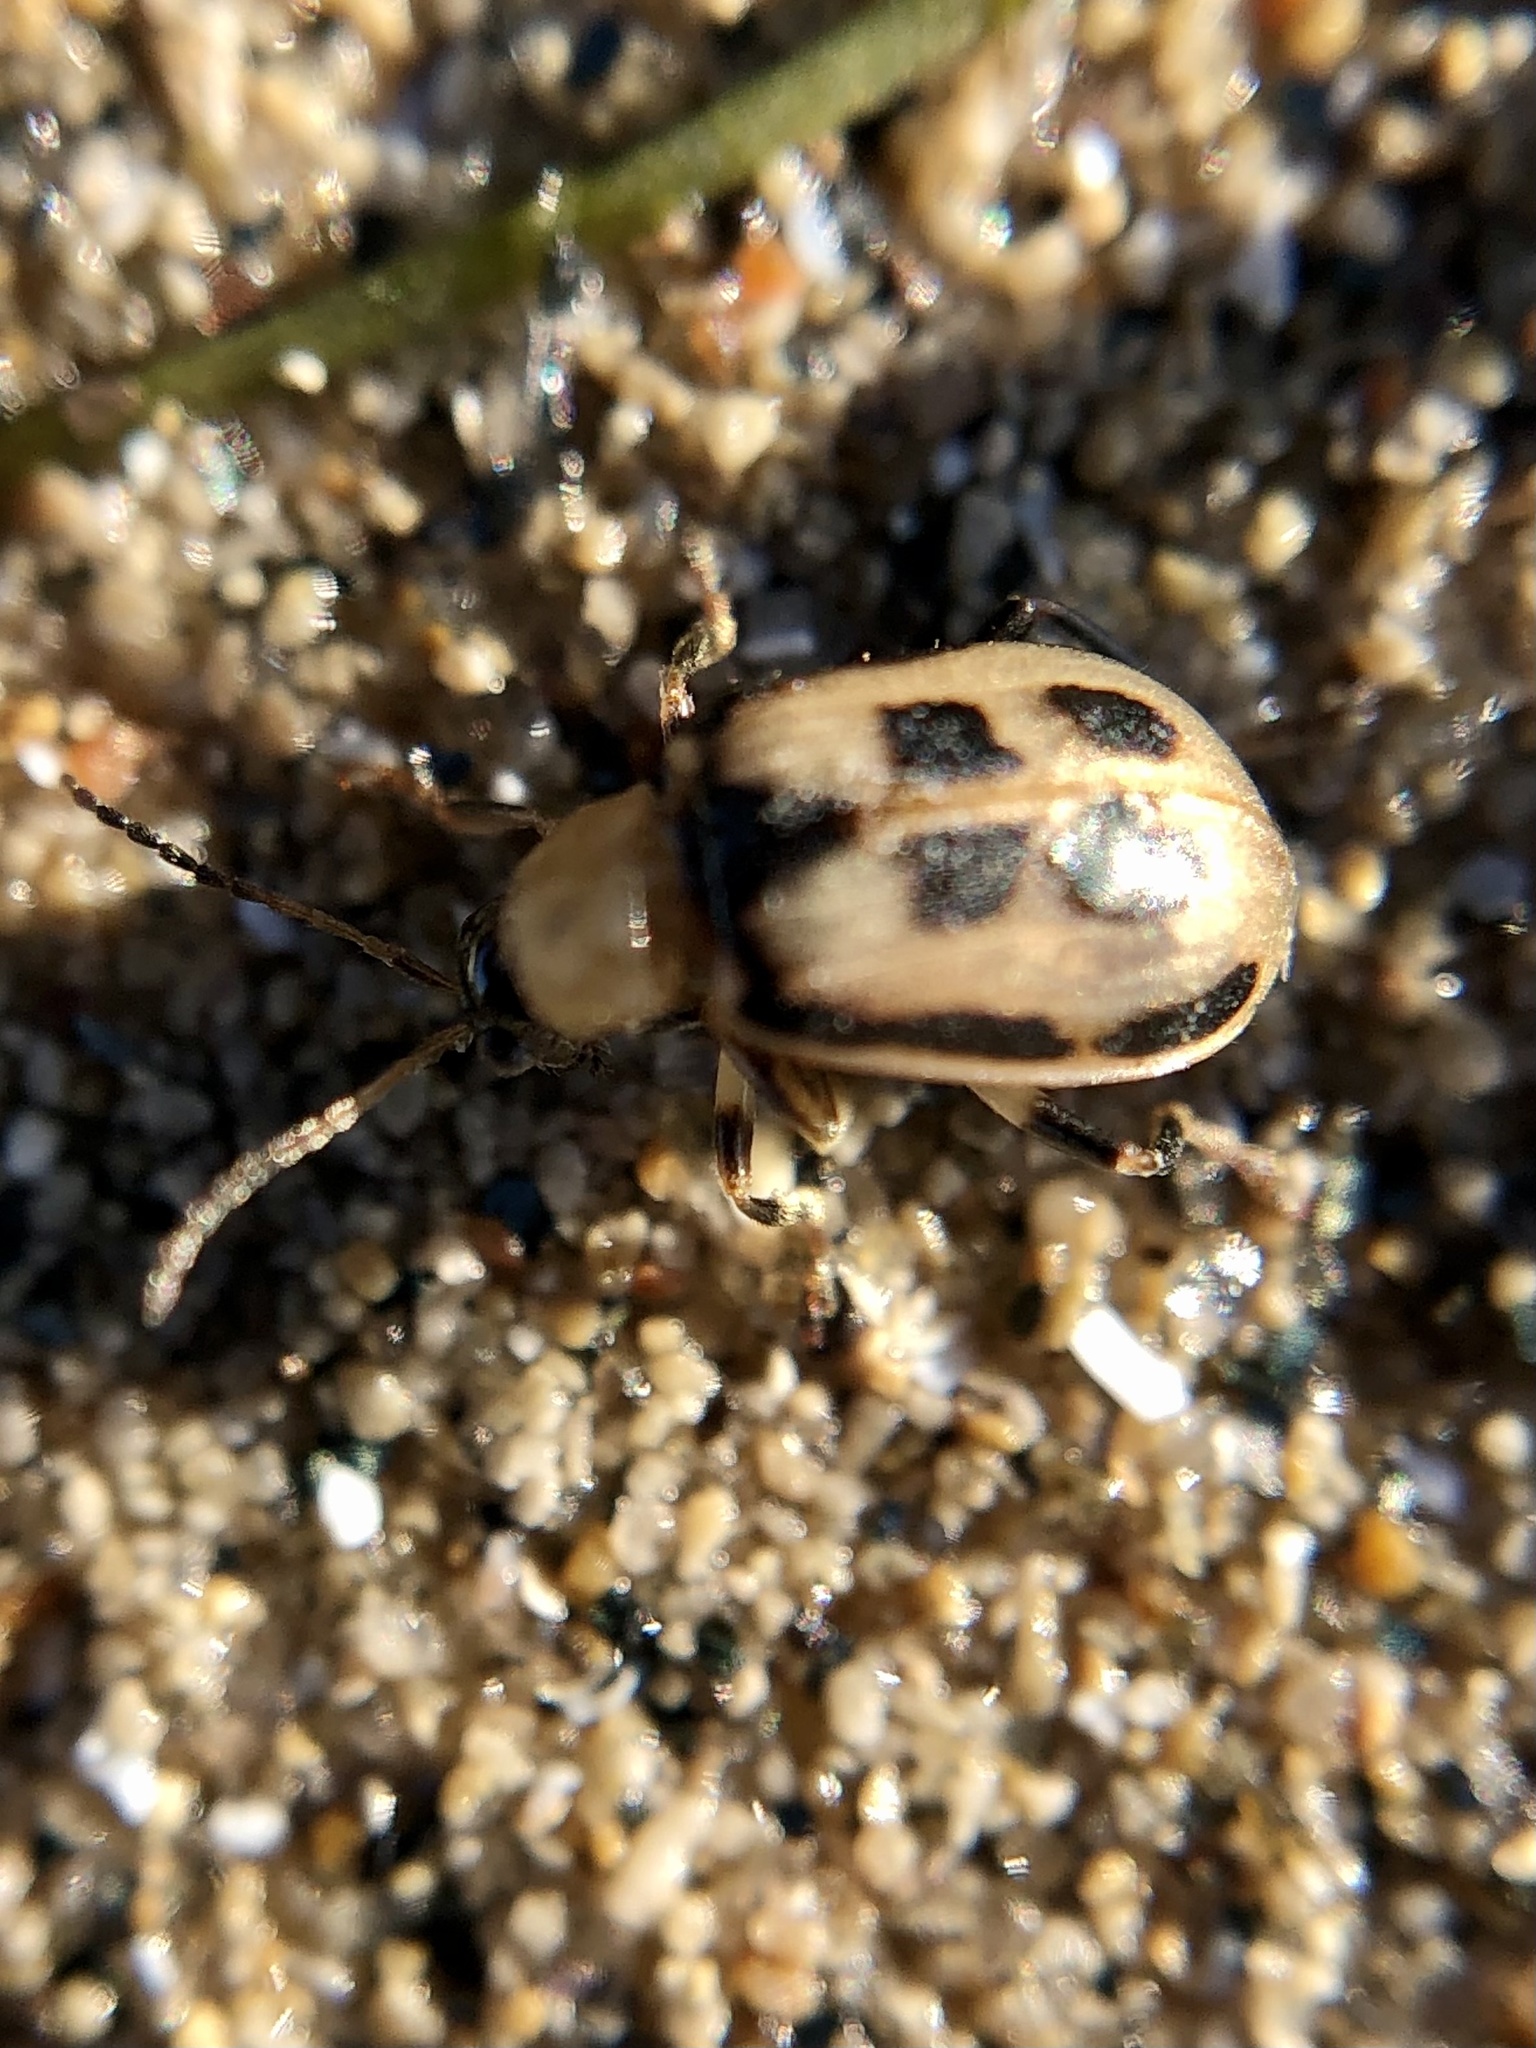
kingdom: Animalia
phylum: Arthropoda
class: Insecta
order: Coleoptera
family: Chrysomelidae
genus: Cerotoma
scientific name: Cerotoma trifurcata
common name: Bean leaf beetle
